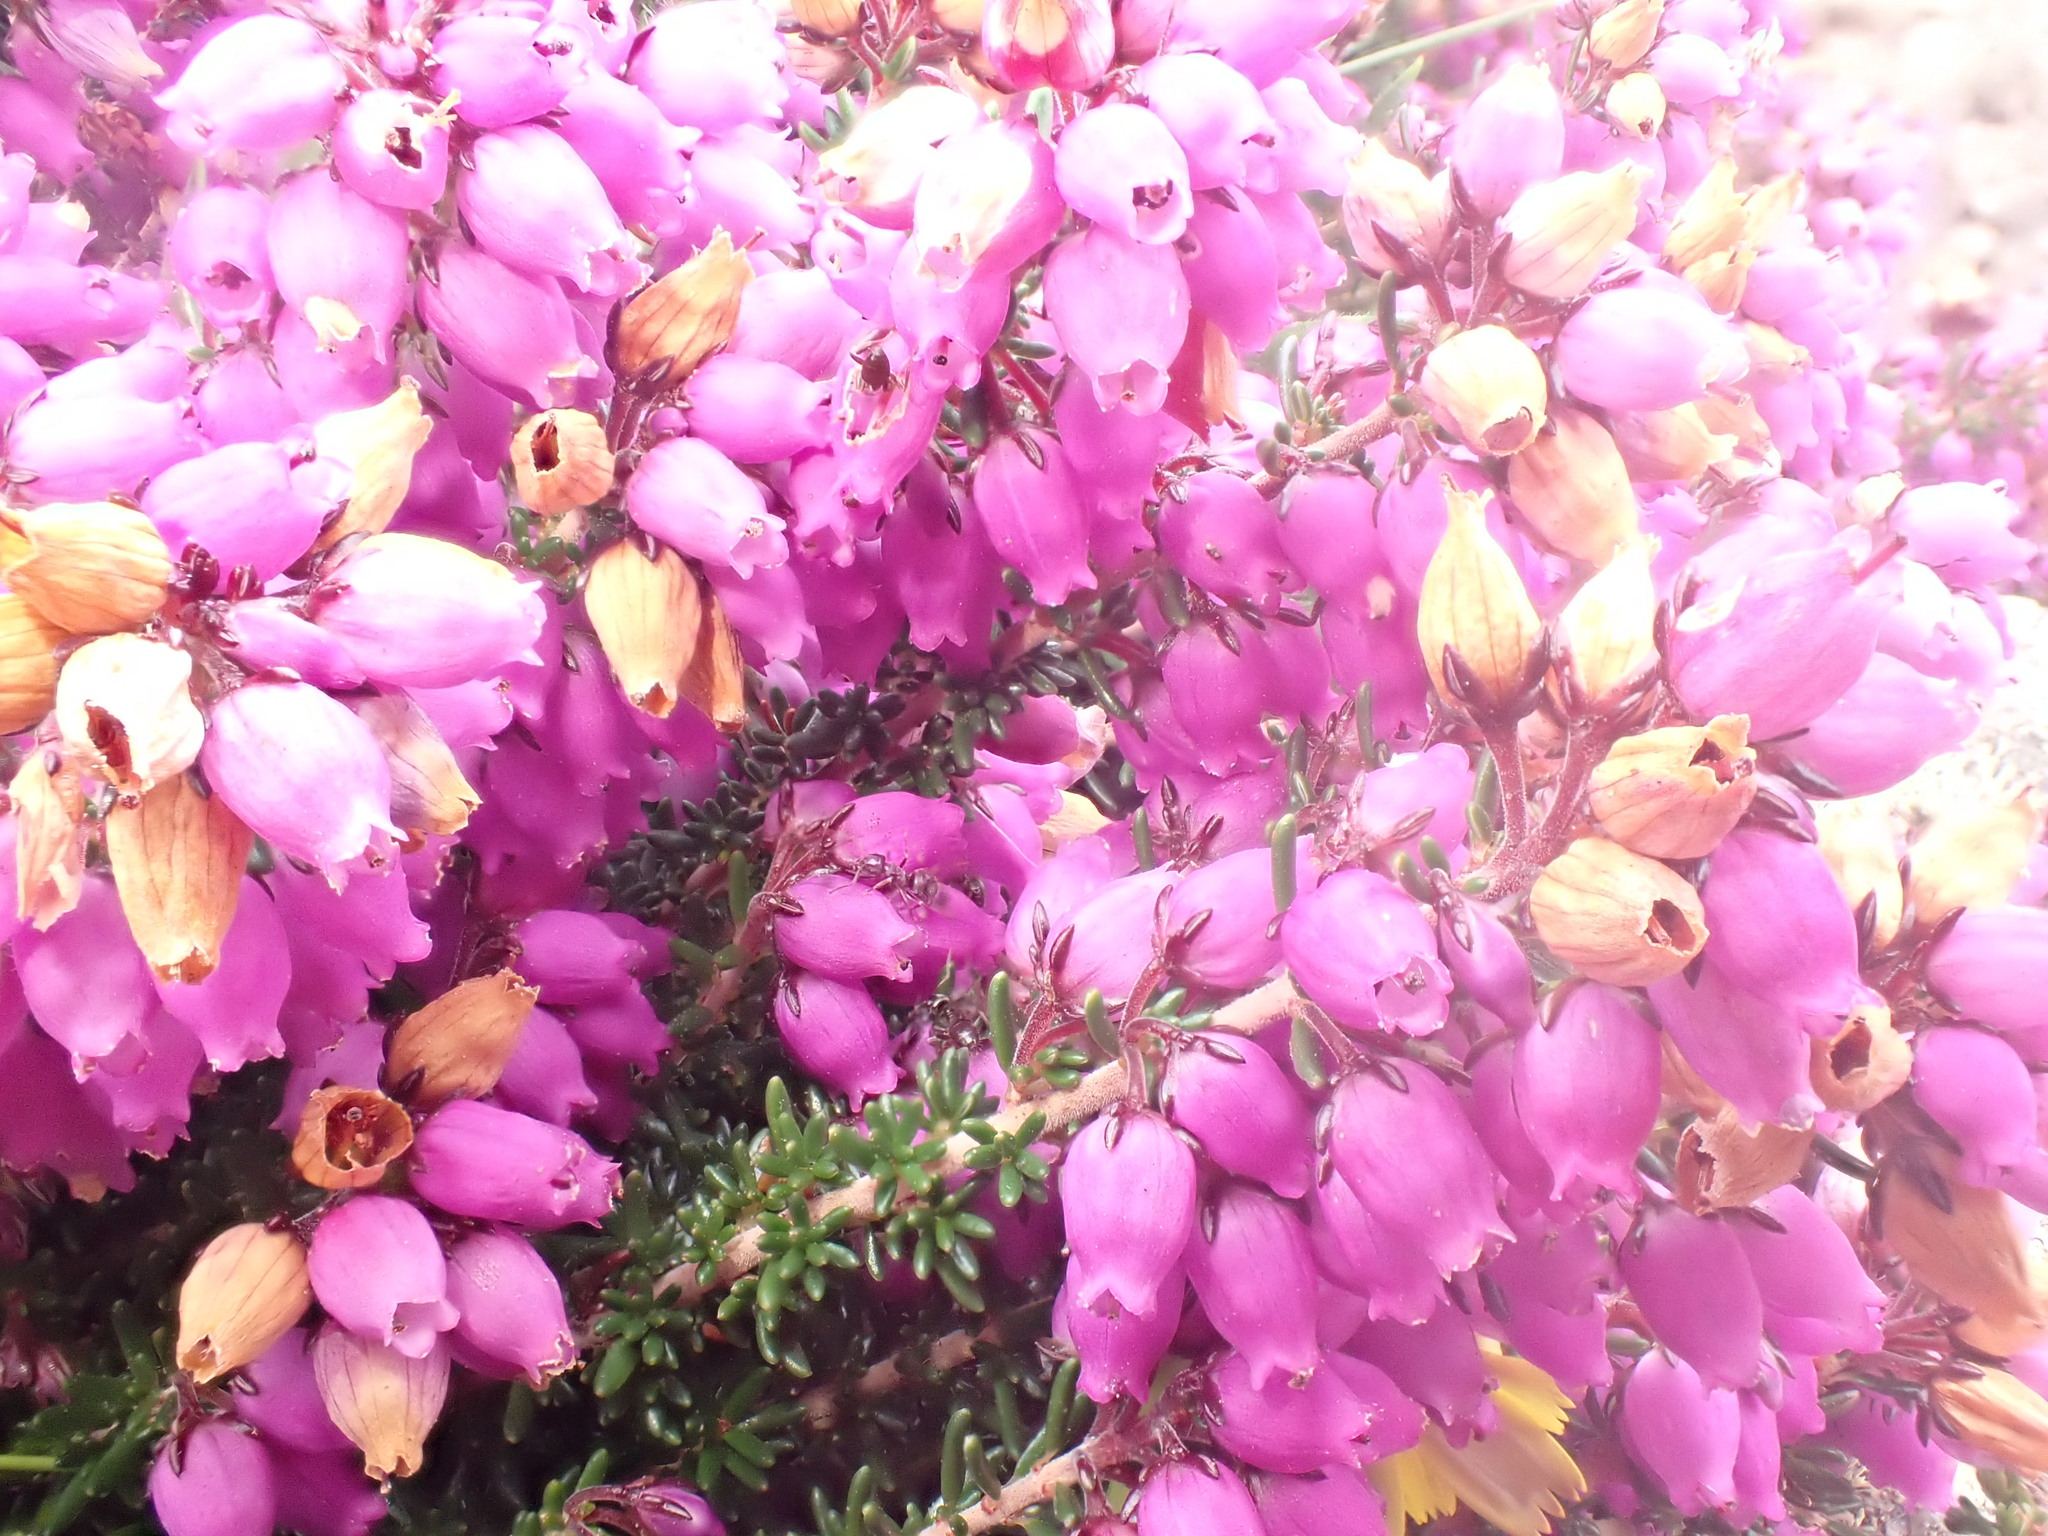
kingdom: Plantae
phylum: Tracheophyta
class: Magnoliopsida
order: Ericales
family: Ericaceae
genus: Erica
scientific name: Erica cinerea
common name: Bell heather
